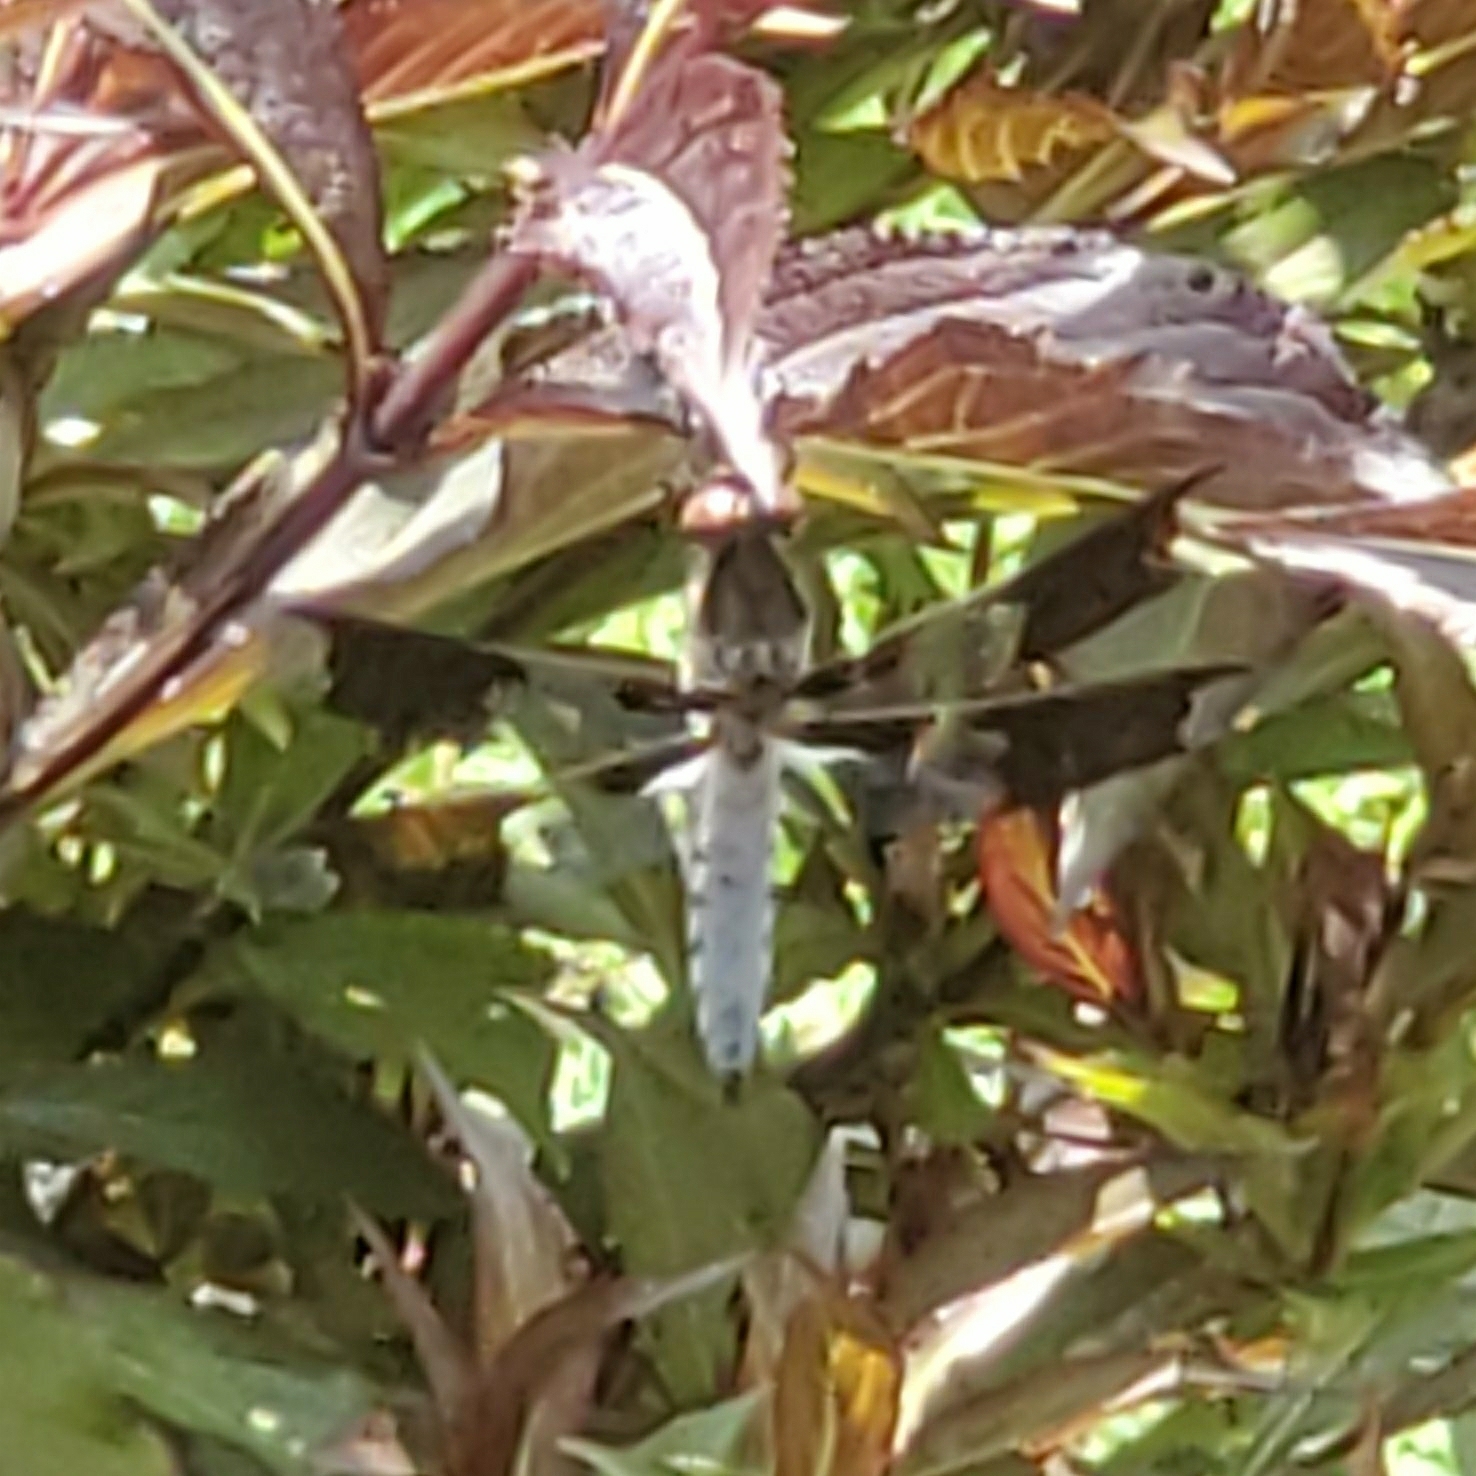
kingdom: Animalia
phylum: Arthropoda
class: Insecta
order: Odonata
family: Libellulidae
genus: Plathemis
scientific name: Plathemis lydia
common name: Common whitetail
